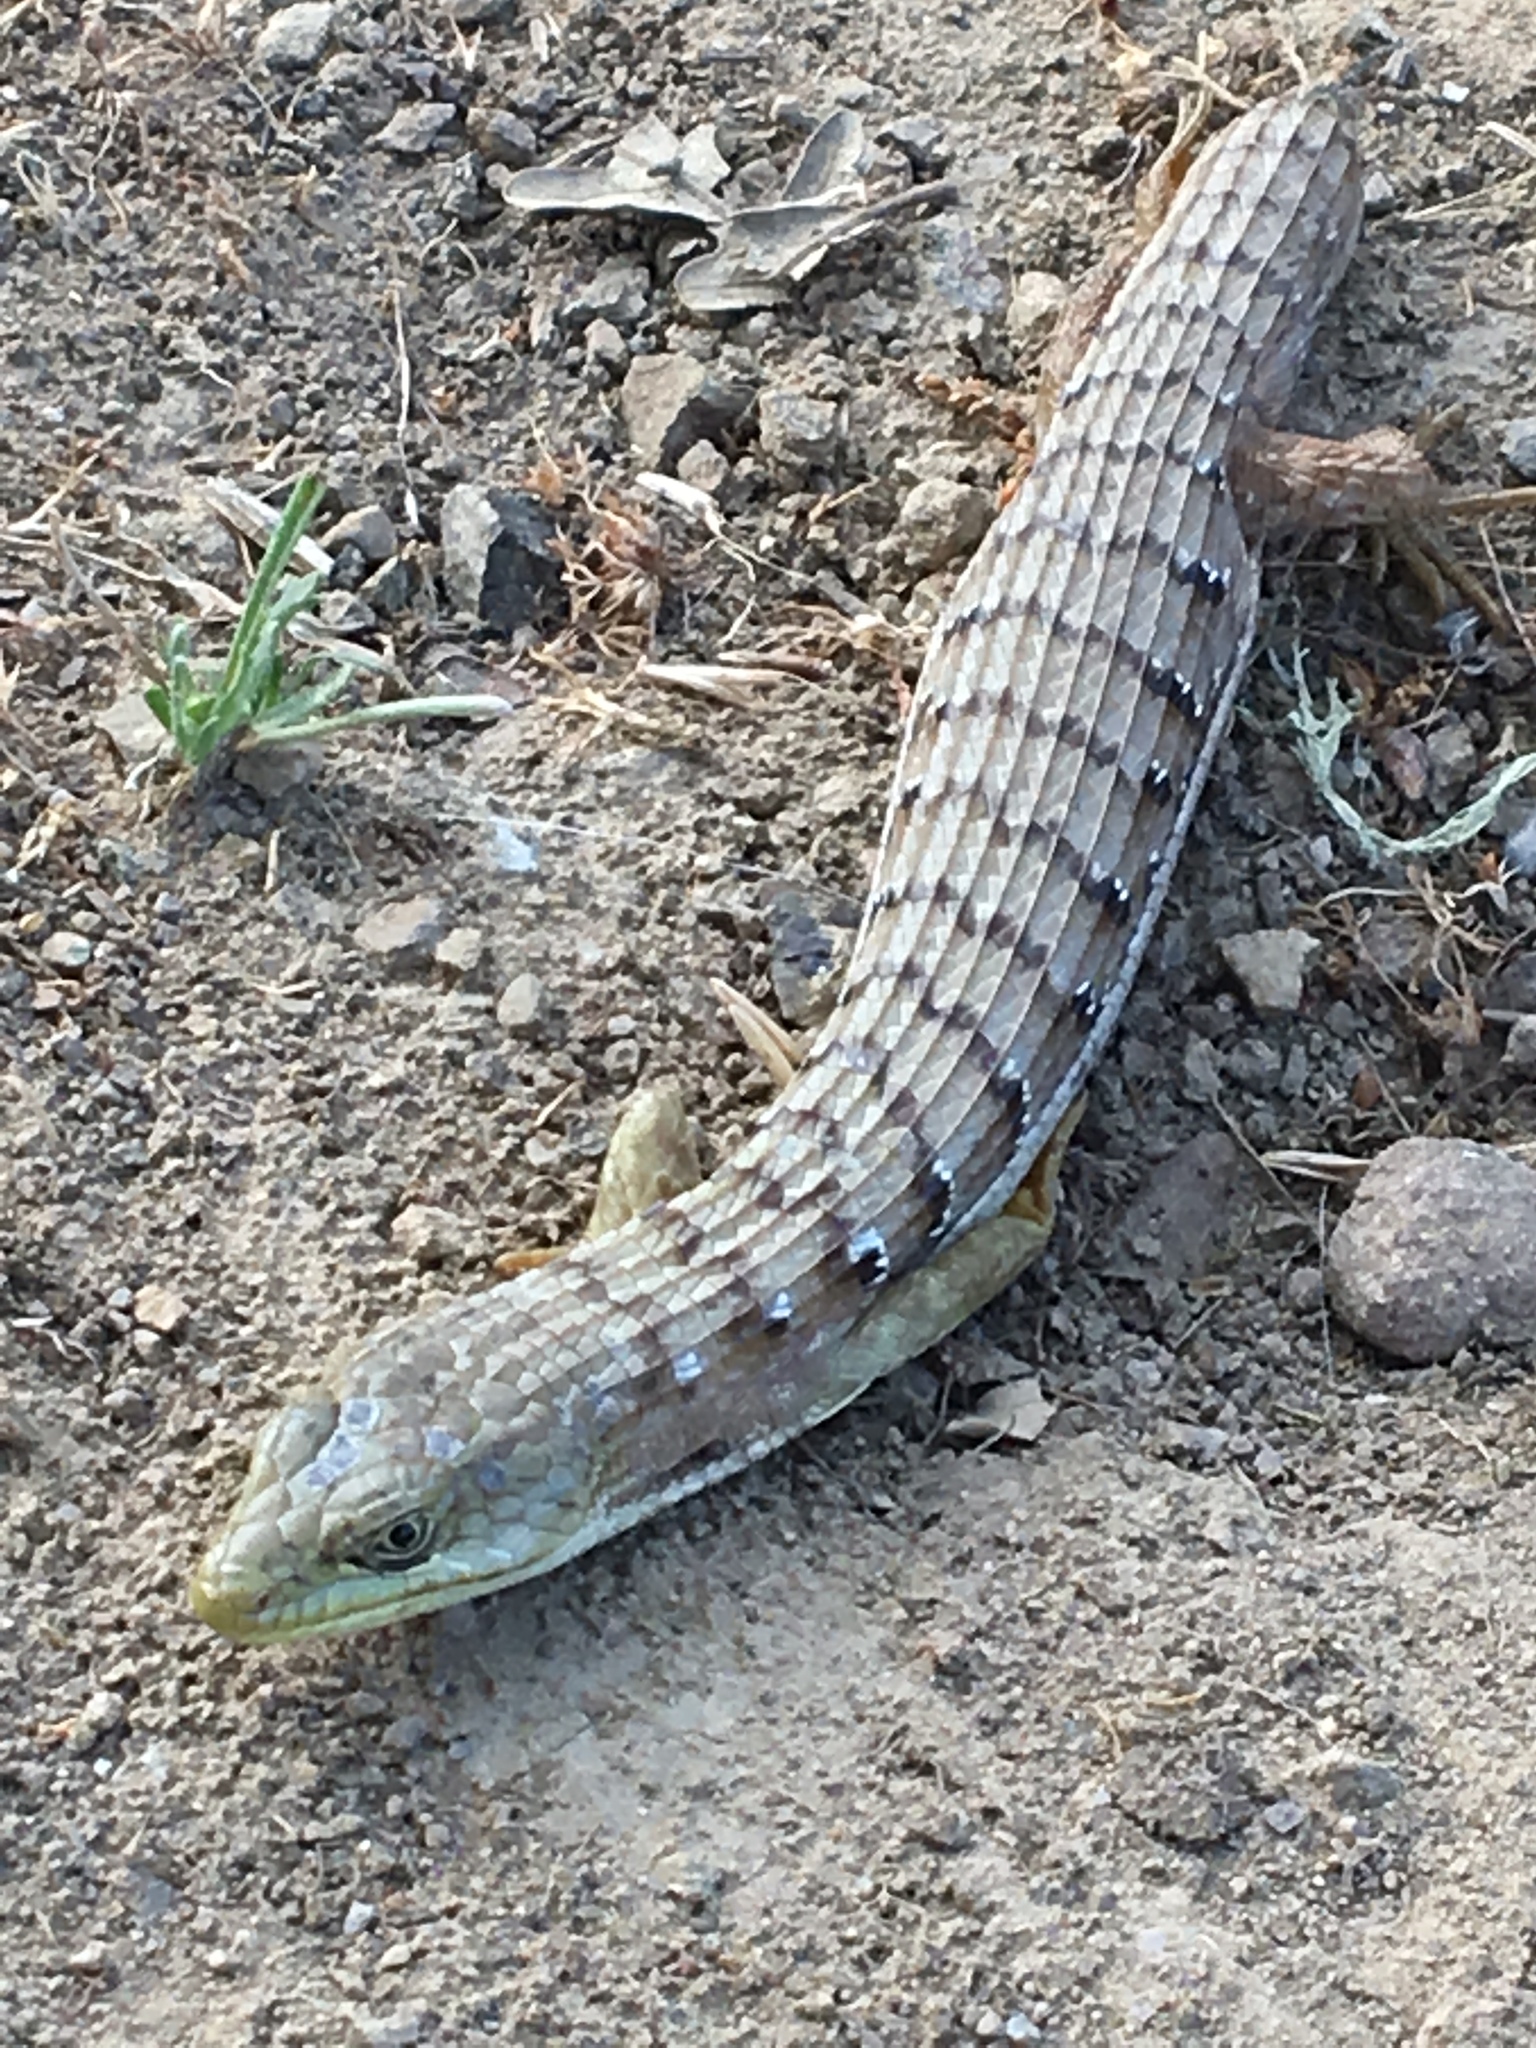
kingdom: Animalia
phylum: Chordata
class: Squamata
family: Anguidae
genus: Elgaria
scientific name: Elgaria multicarinata
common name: Southern alligator lizard
